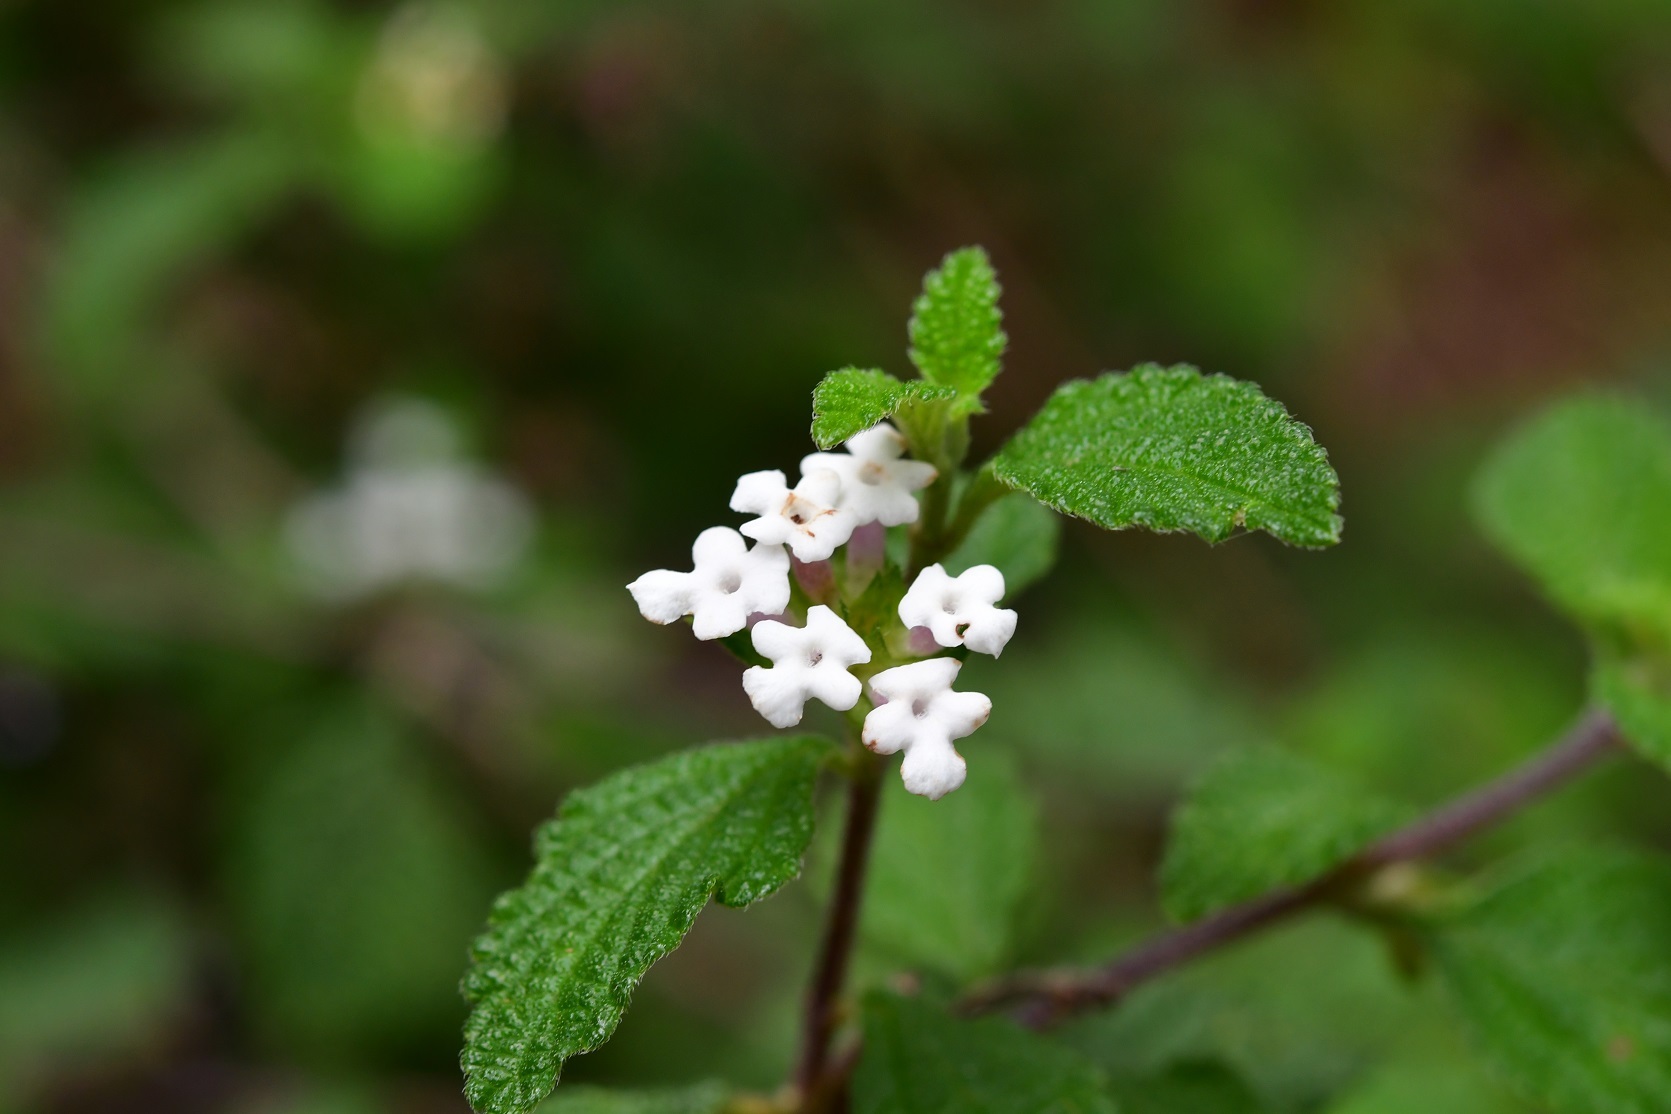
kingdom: Plantae
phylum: Tracheophyta
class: Magnoliopsida
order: Lamiales
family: Verbenaceae
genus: Lantana
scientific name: Lantana hirta
